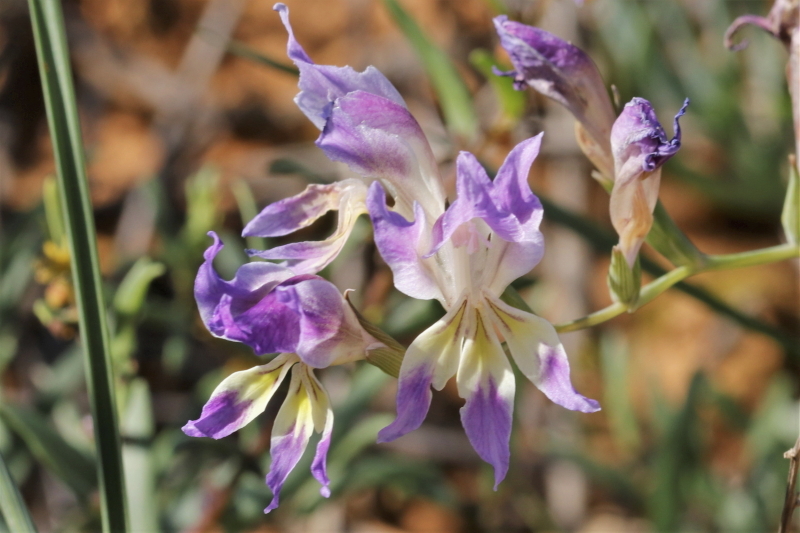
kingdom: Plantae
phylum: Tracheophyta
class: Liliopsida
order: Asparagales
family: Iridaceae
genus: Gladiolus
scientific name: Gladiolus venustus
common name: Purple kalkoentjie
